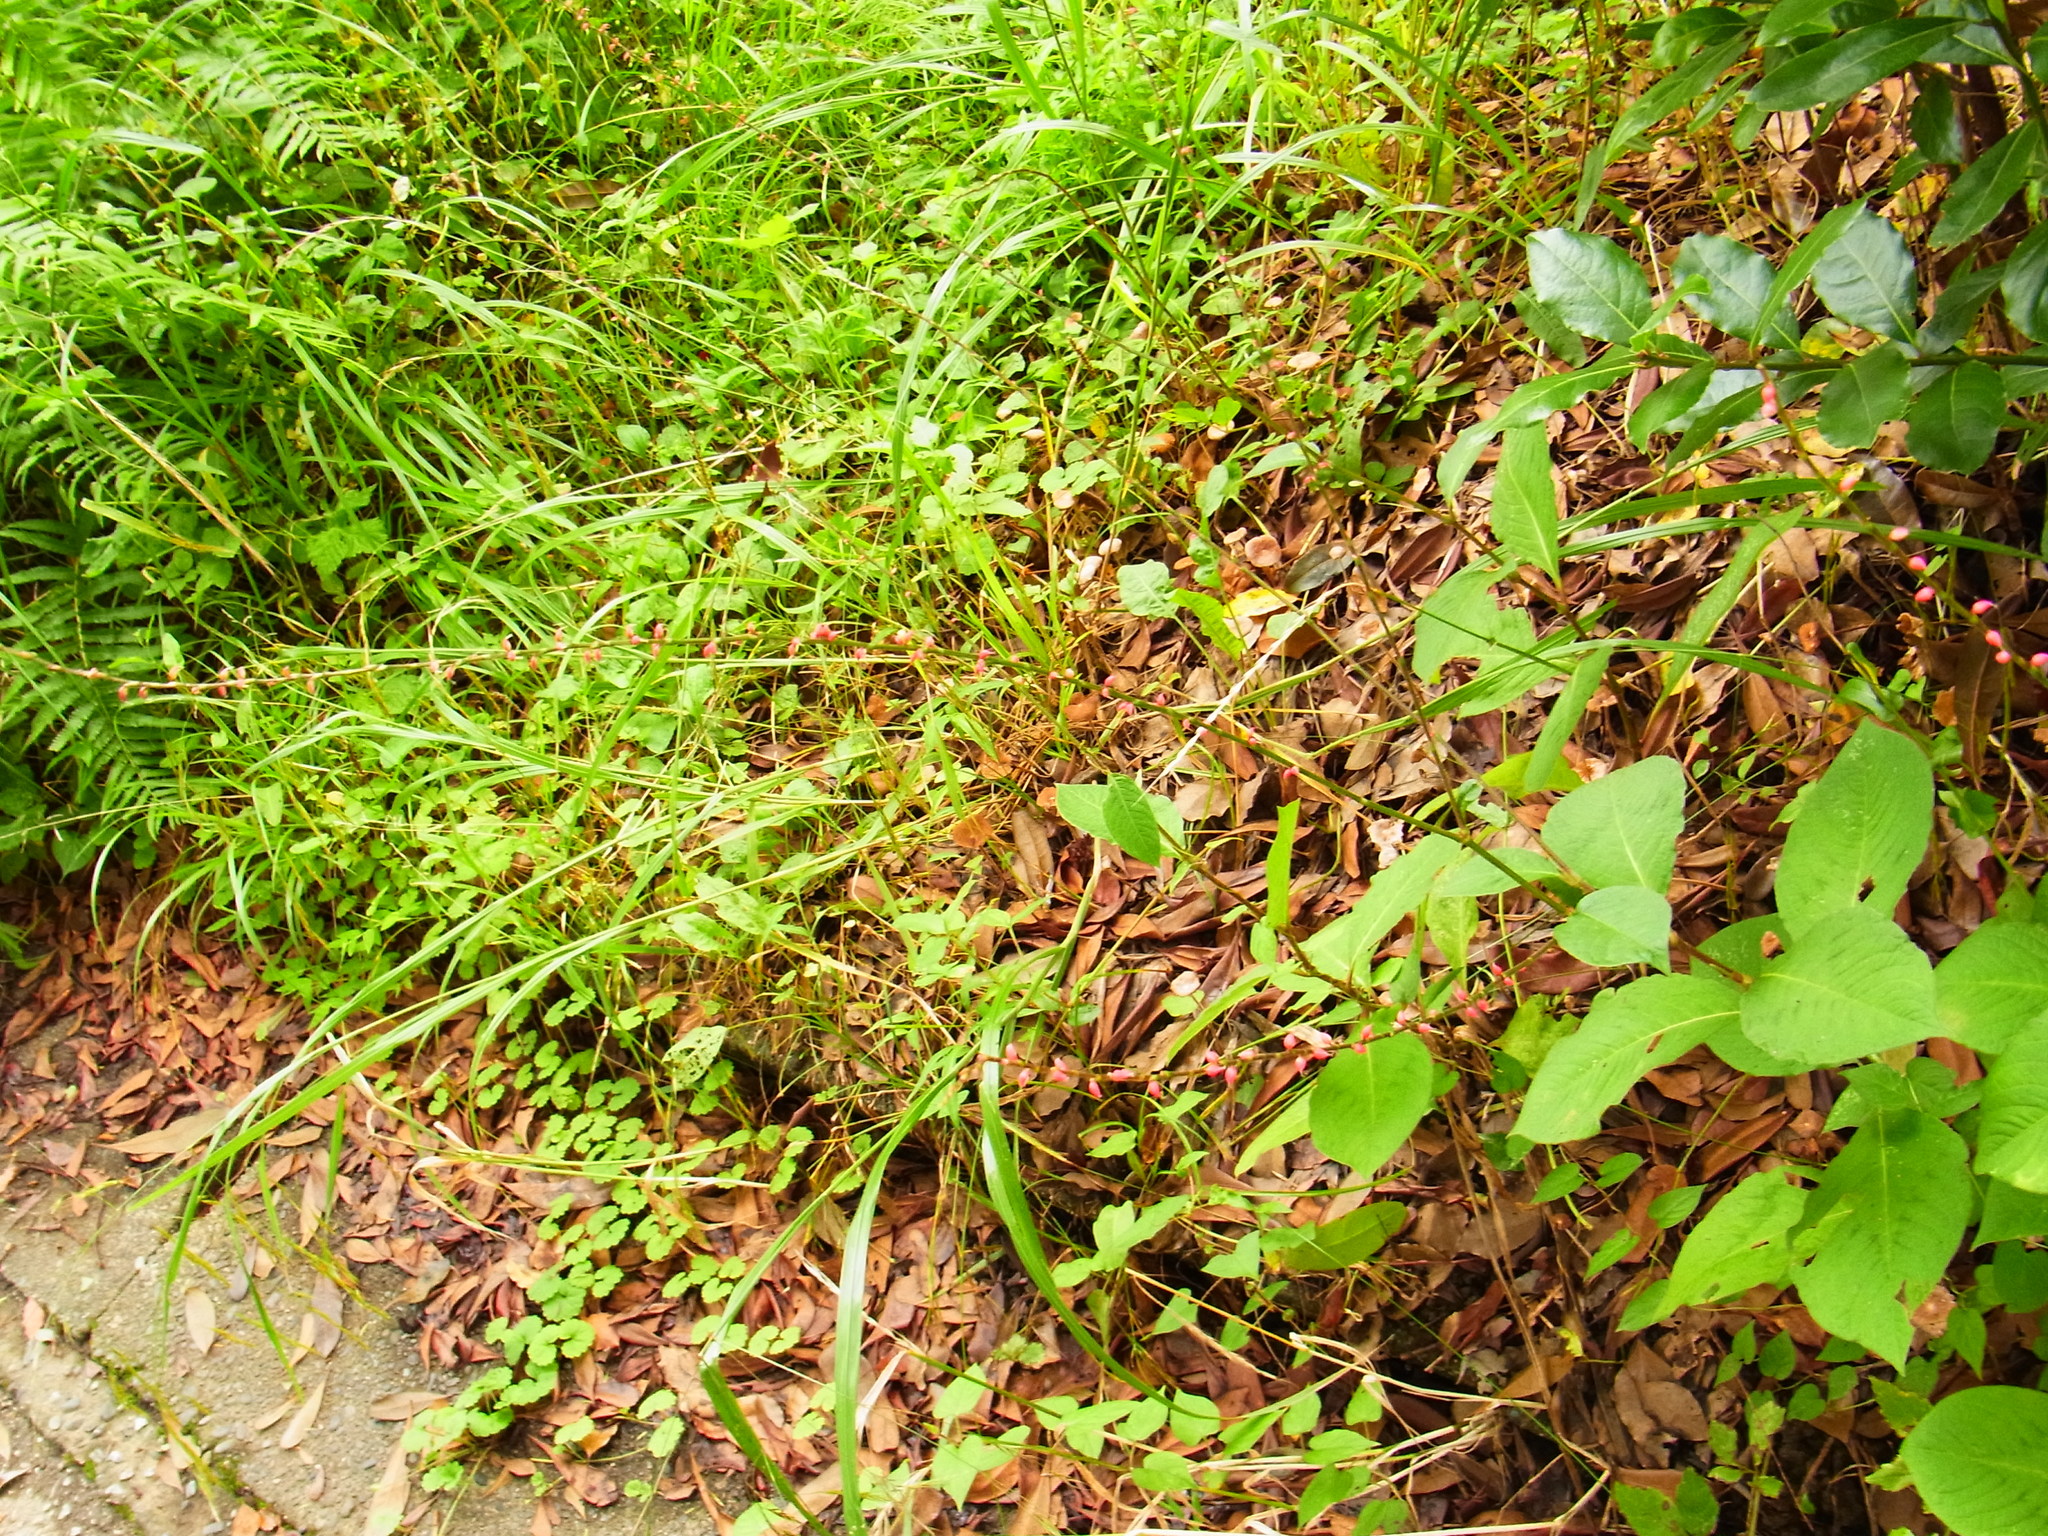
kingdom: Plantae
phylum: Tracheophyta
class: Magnoliopsida
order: Caryophyllales
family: Polygonaceae
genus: Persicaria
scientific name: Persicaria filiformis
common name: Asian jumpseed
